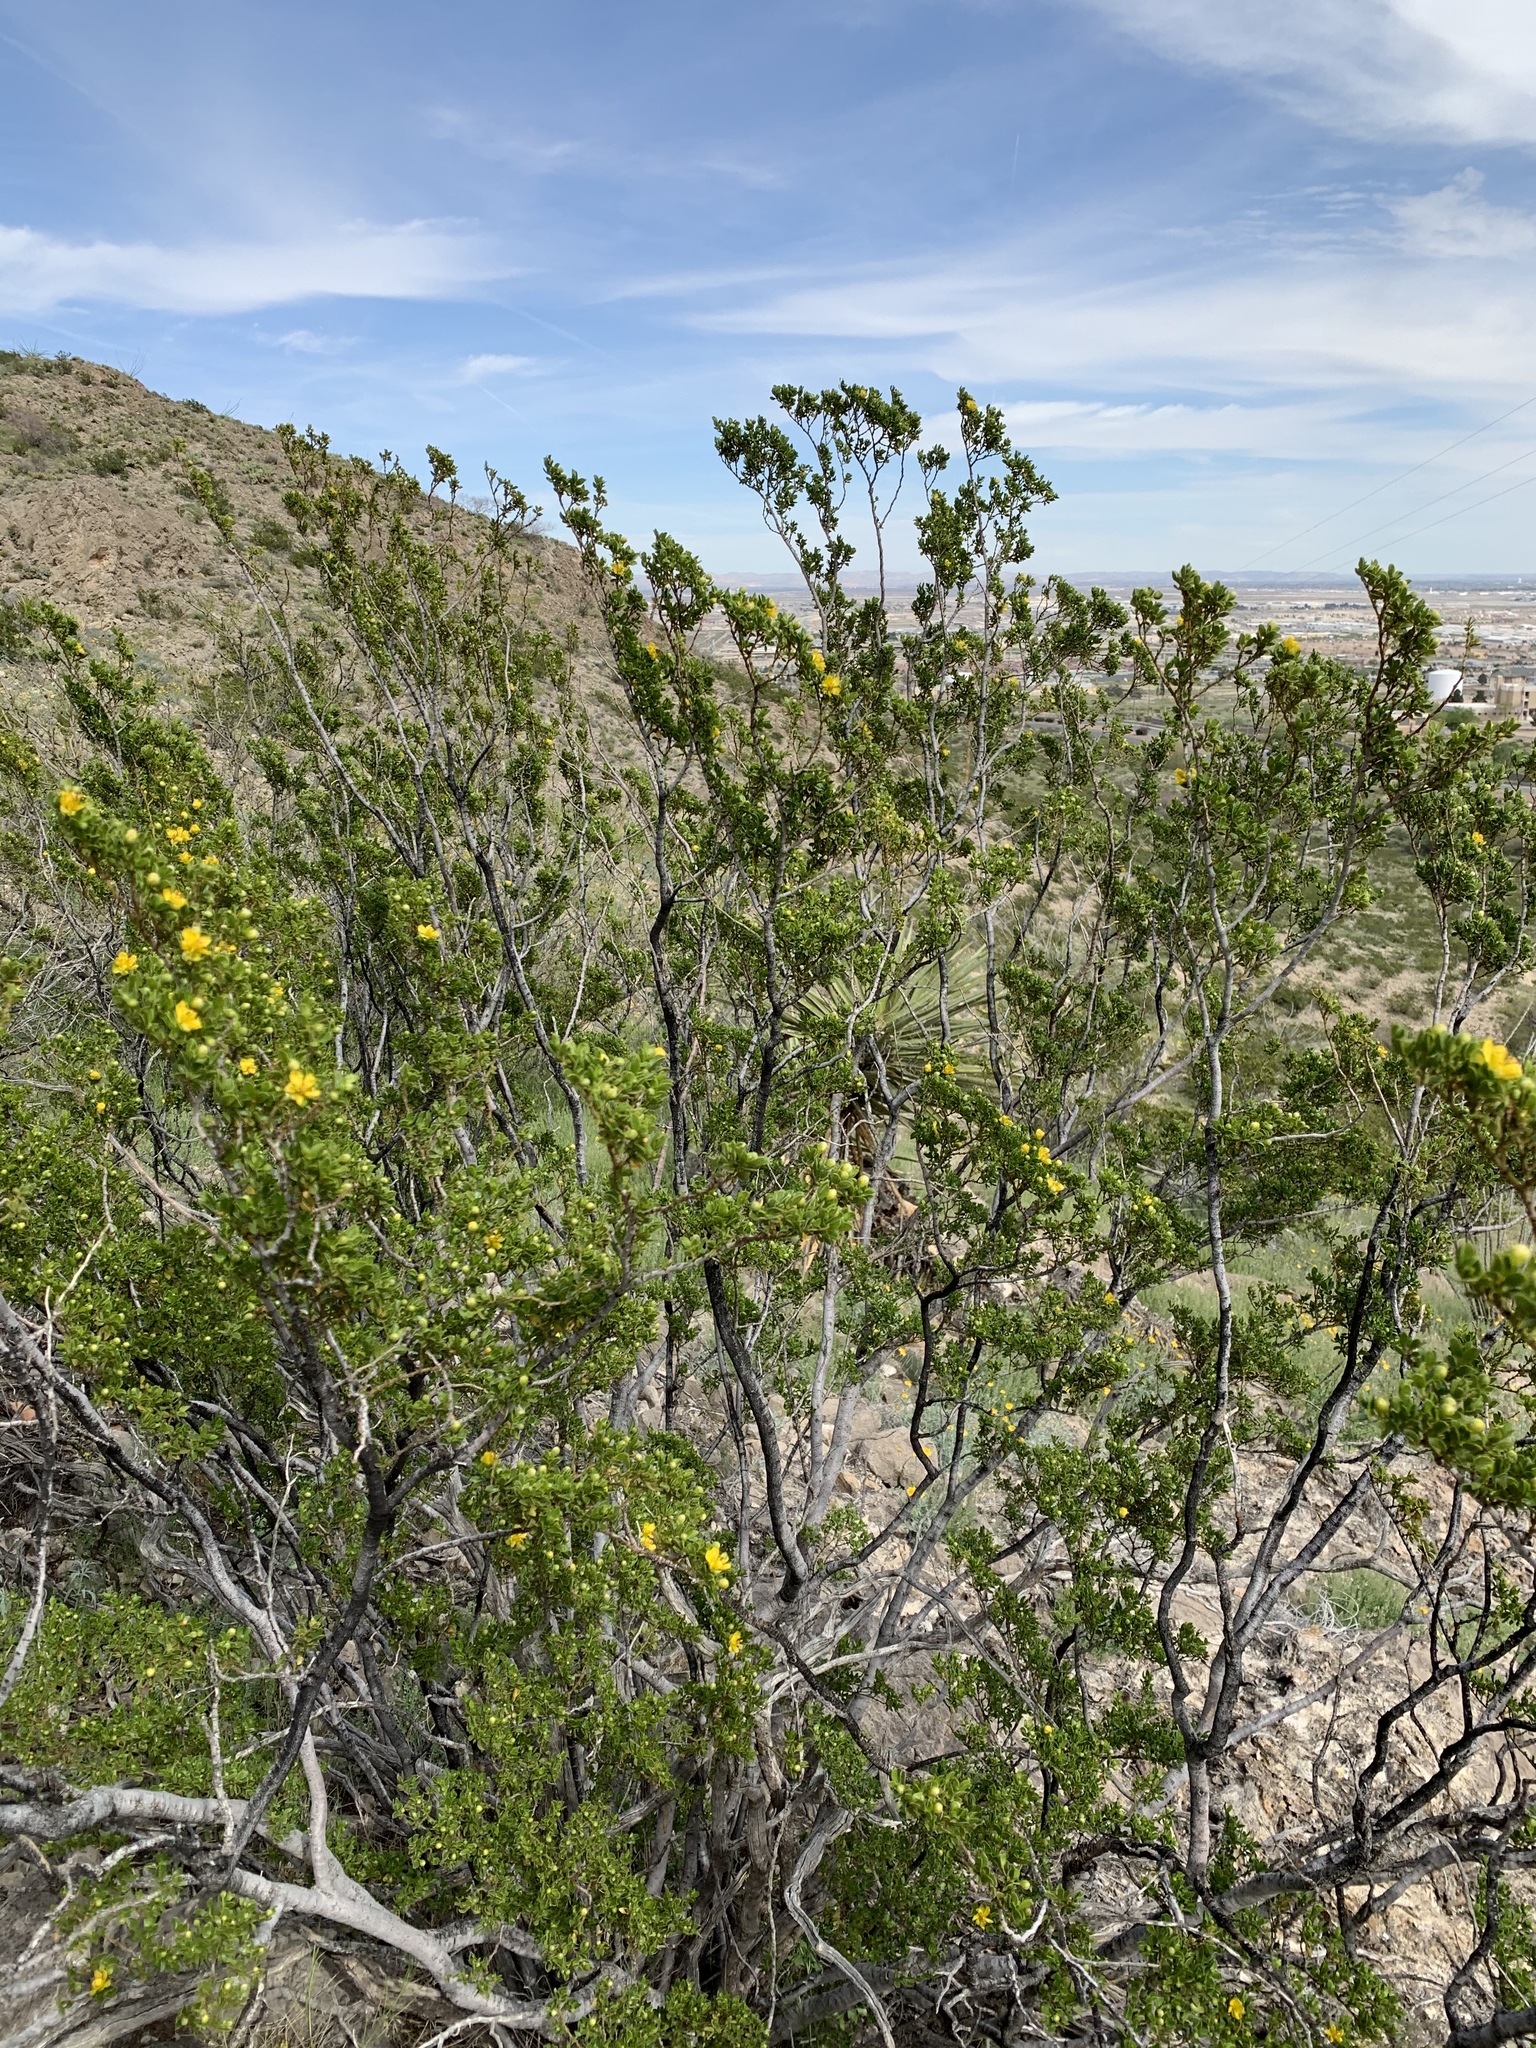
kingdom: Plantae
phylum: Tracheophyta
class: Magnoliopsida
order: Zygophyllales
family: Zygophyllaceae
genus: Larrea
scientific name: Larrea tridentata
